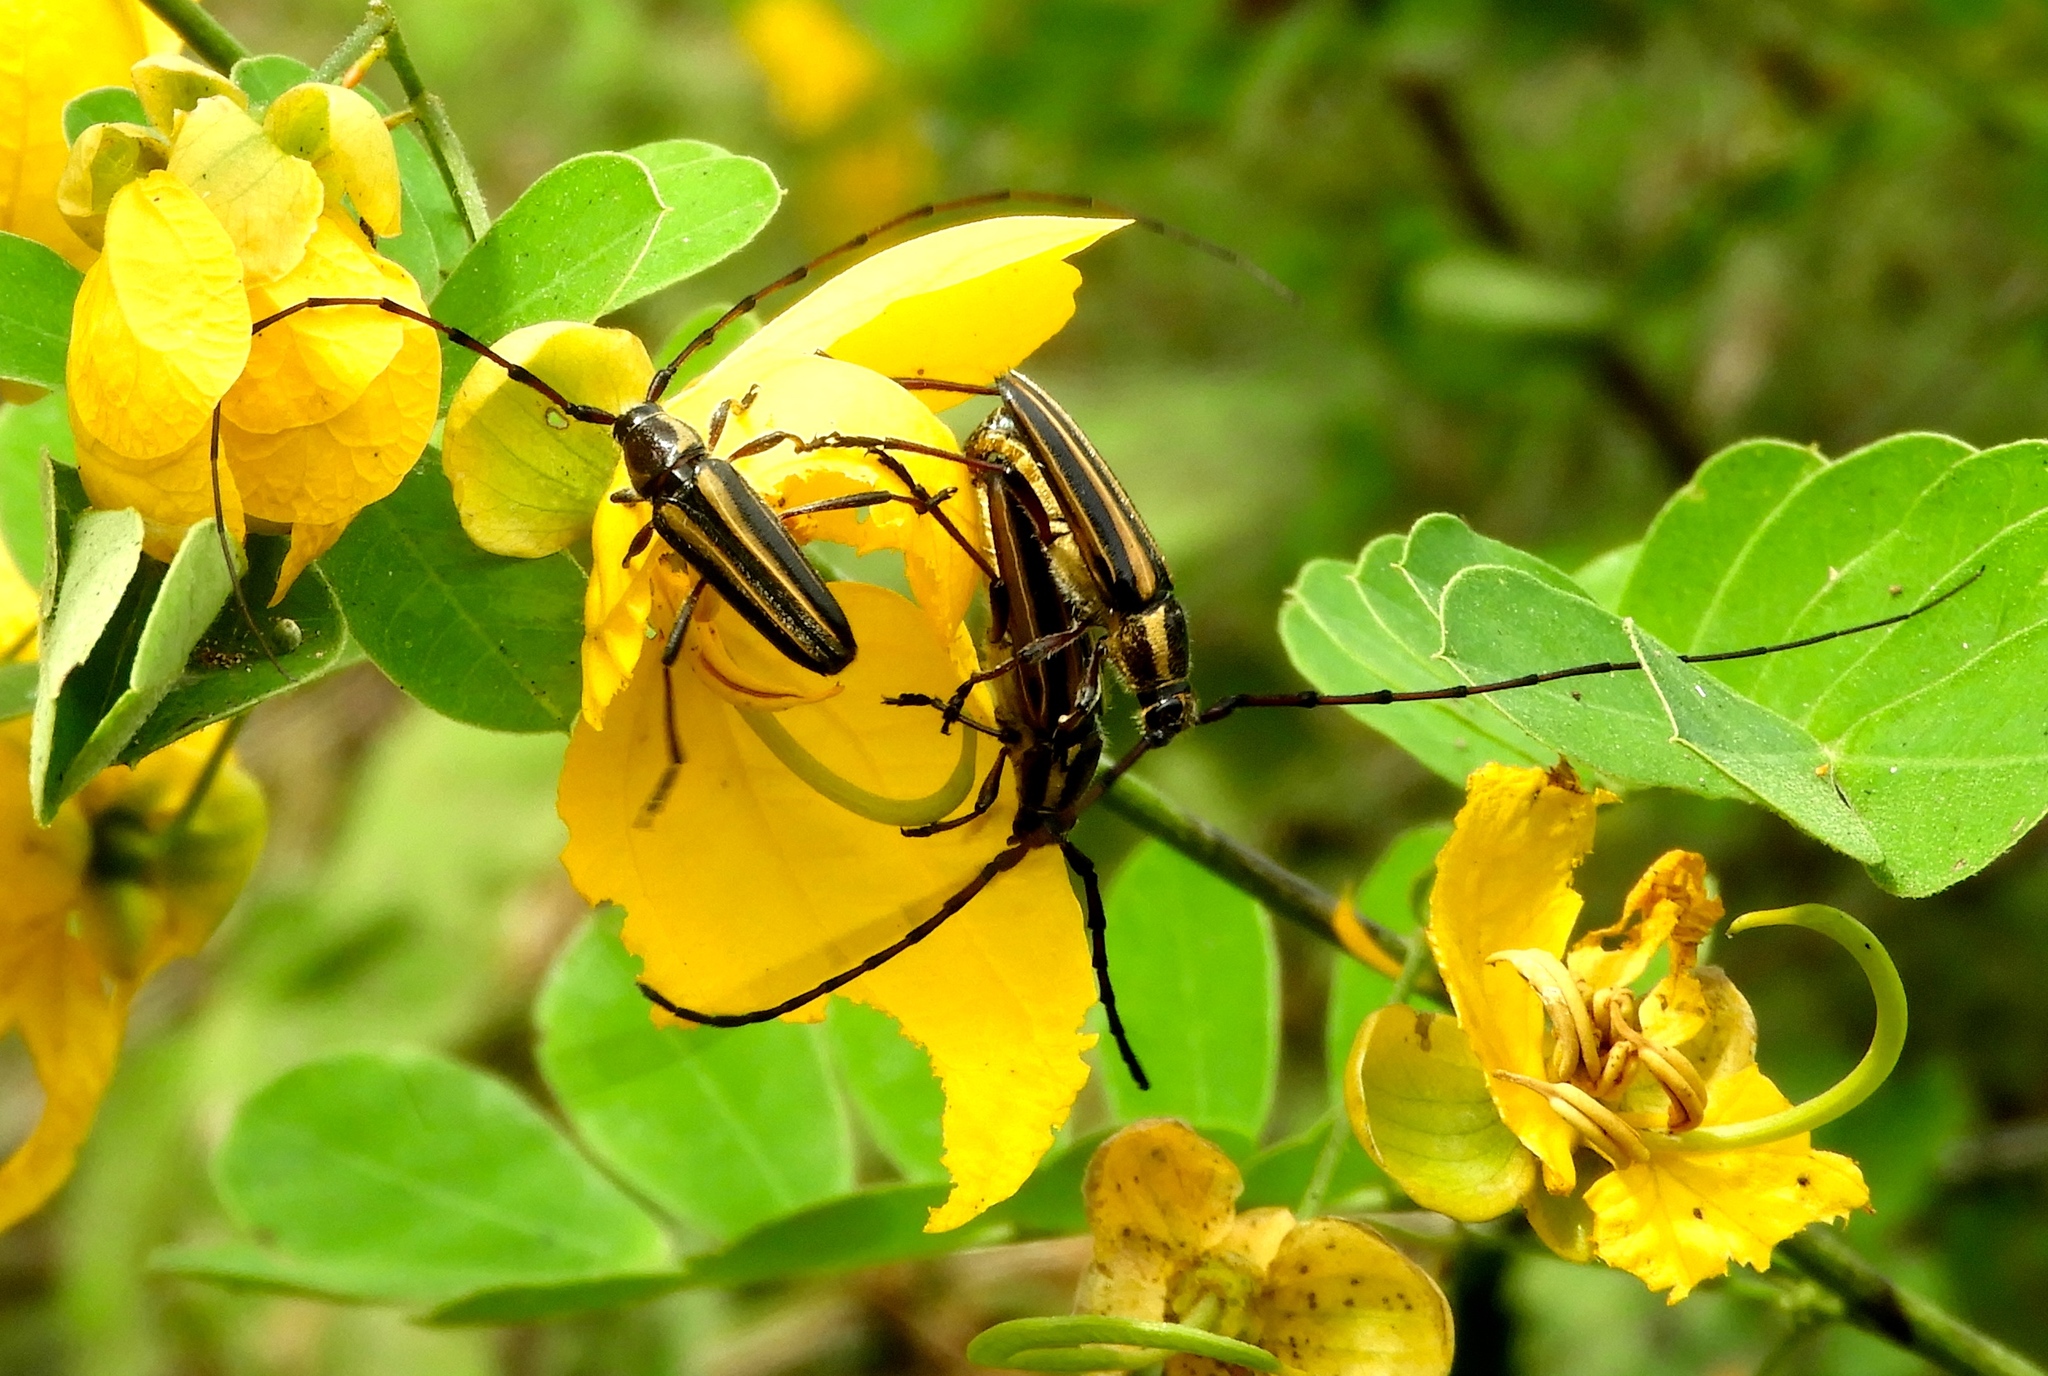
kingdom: Animalia
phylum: Arthropoda
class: Insecta
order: Coleoptera
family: Cerambycidae
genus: Sphaenothecus
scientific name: Sphaenothecus
